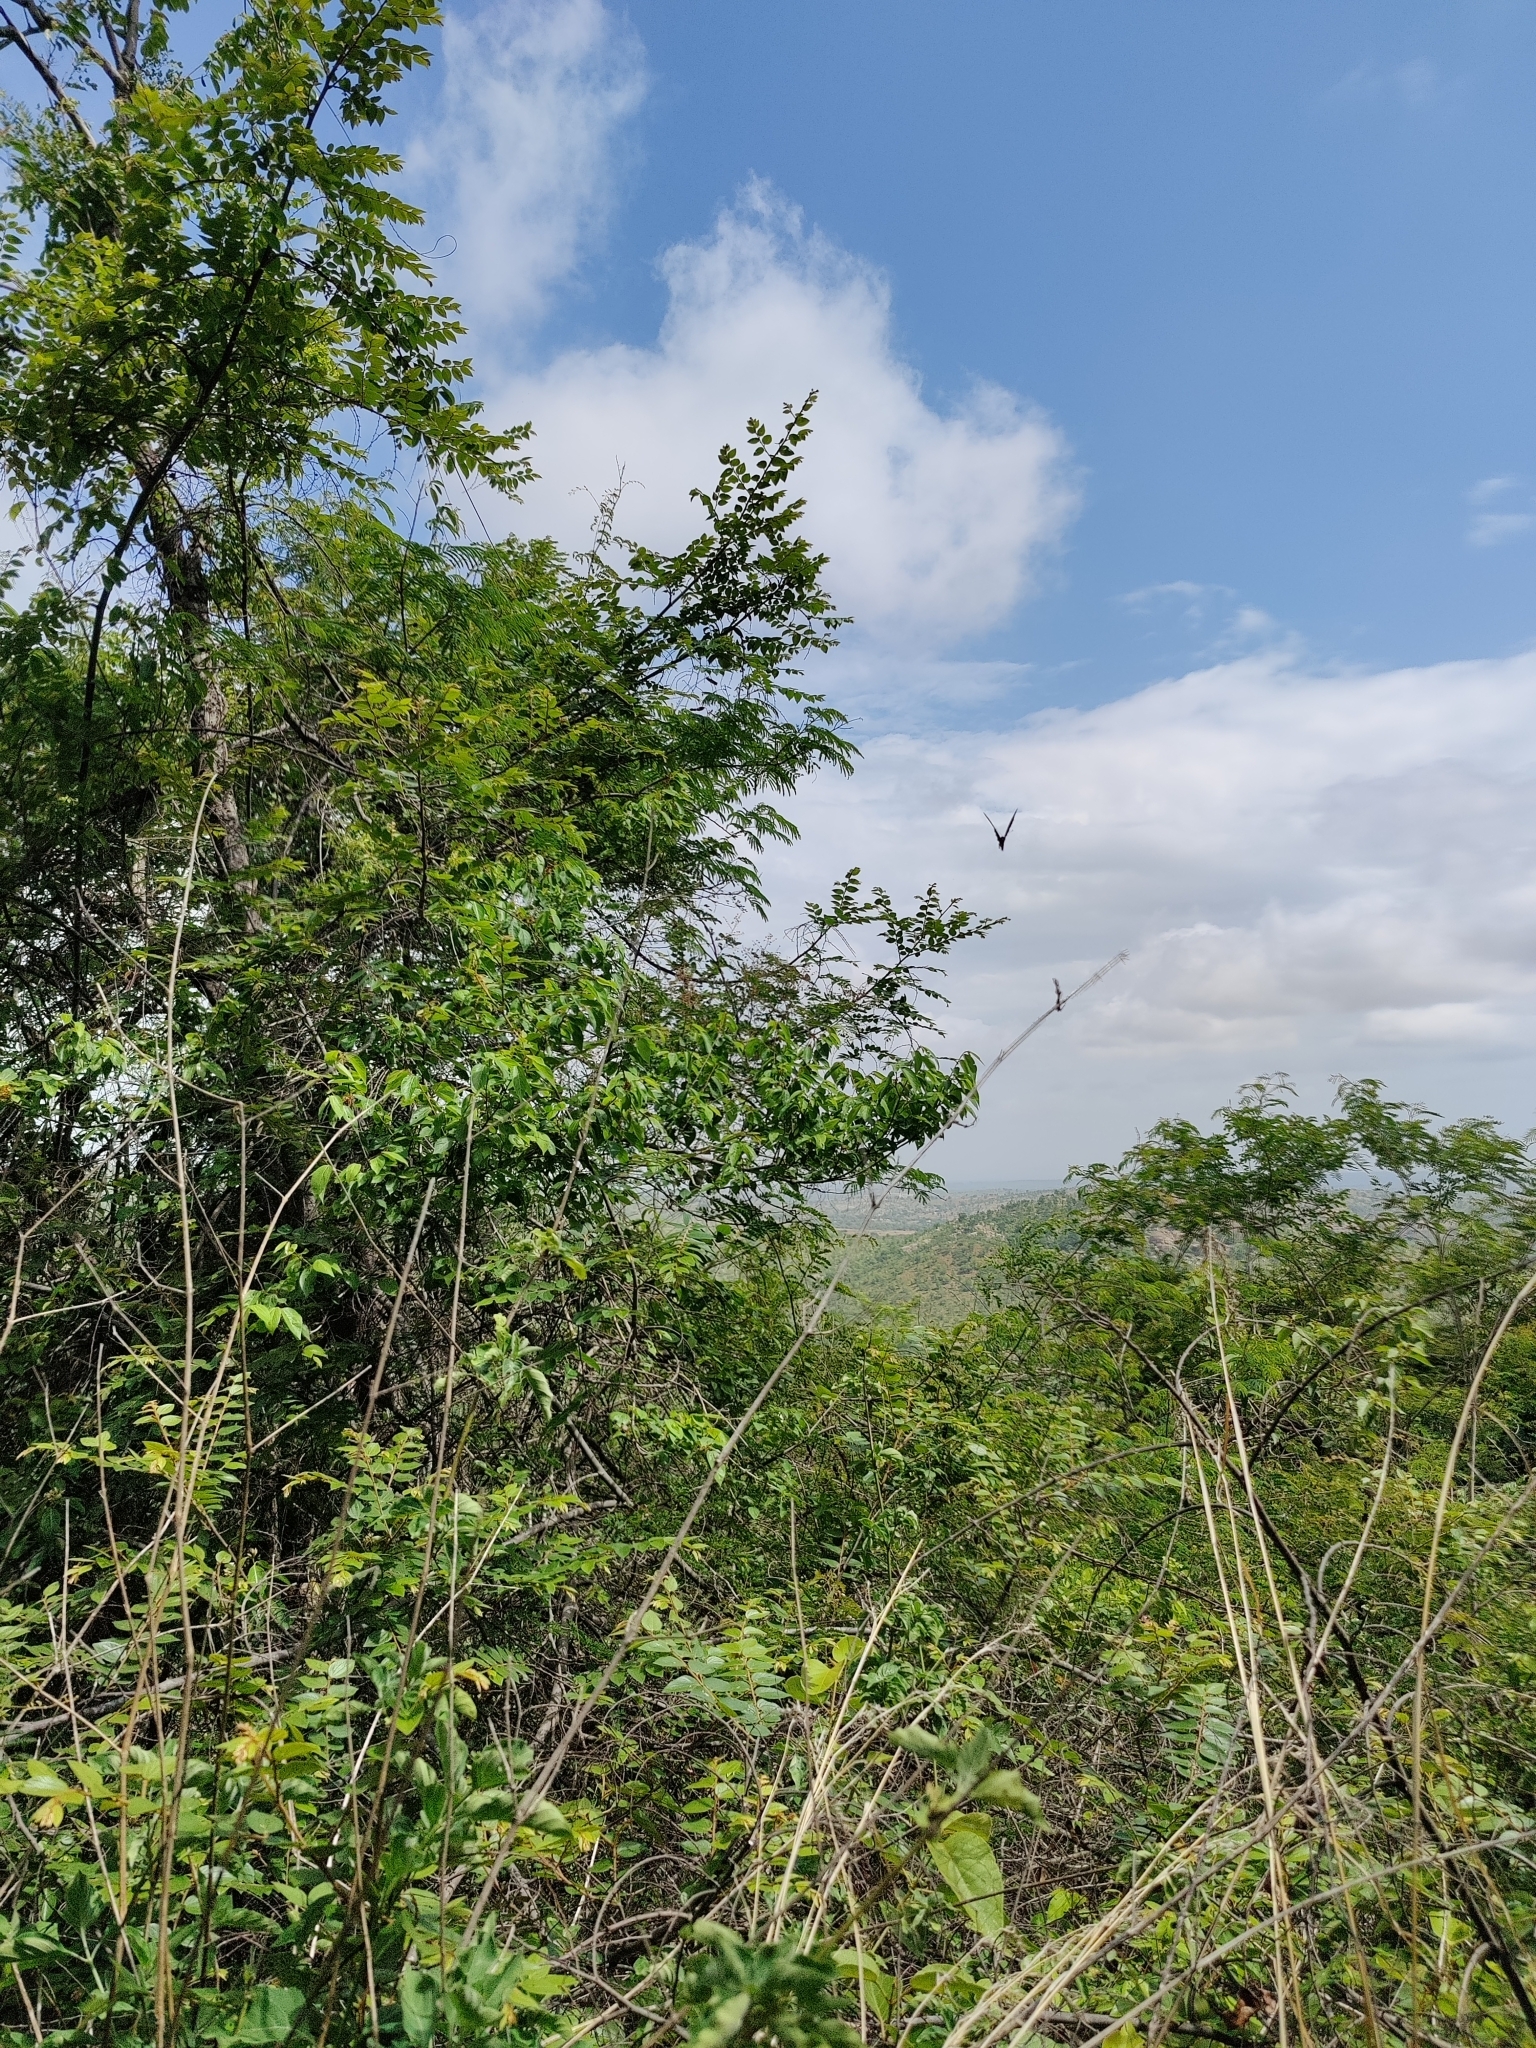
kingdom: Animalia
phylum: Arthropoda
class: Insecta
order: Lepidoptera
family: Papilionidae
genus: Papilio
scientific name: Papilio crino
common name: Common banded peacock
